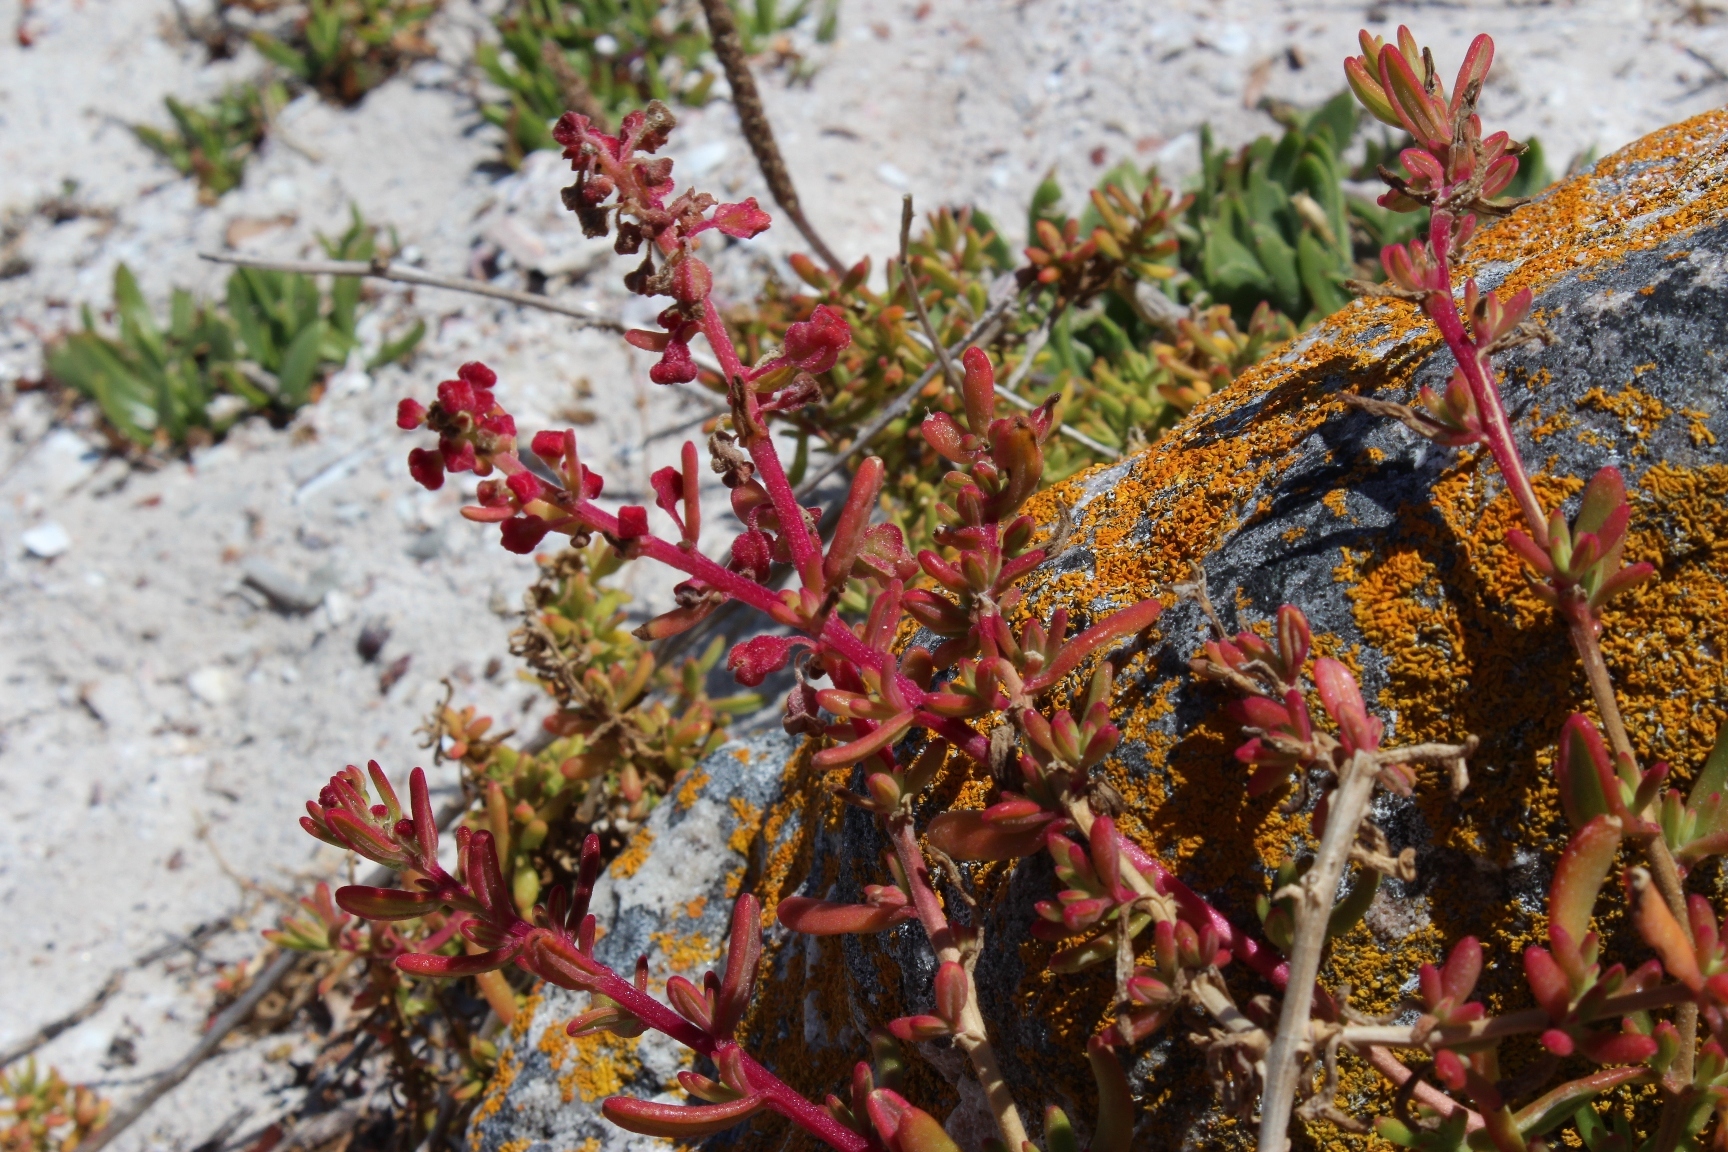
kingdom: Plantae
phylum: Tracheophyta
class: Magnoliopsida
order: Caryophyllales
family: Aizoaceae
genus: Tetragonia
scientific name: Tetragonia fruticosa
